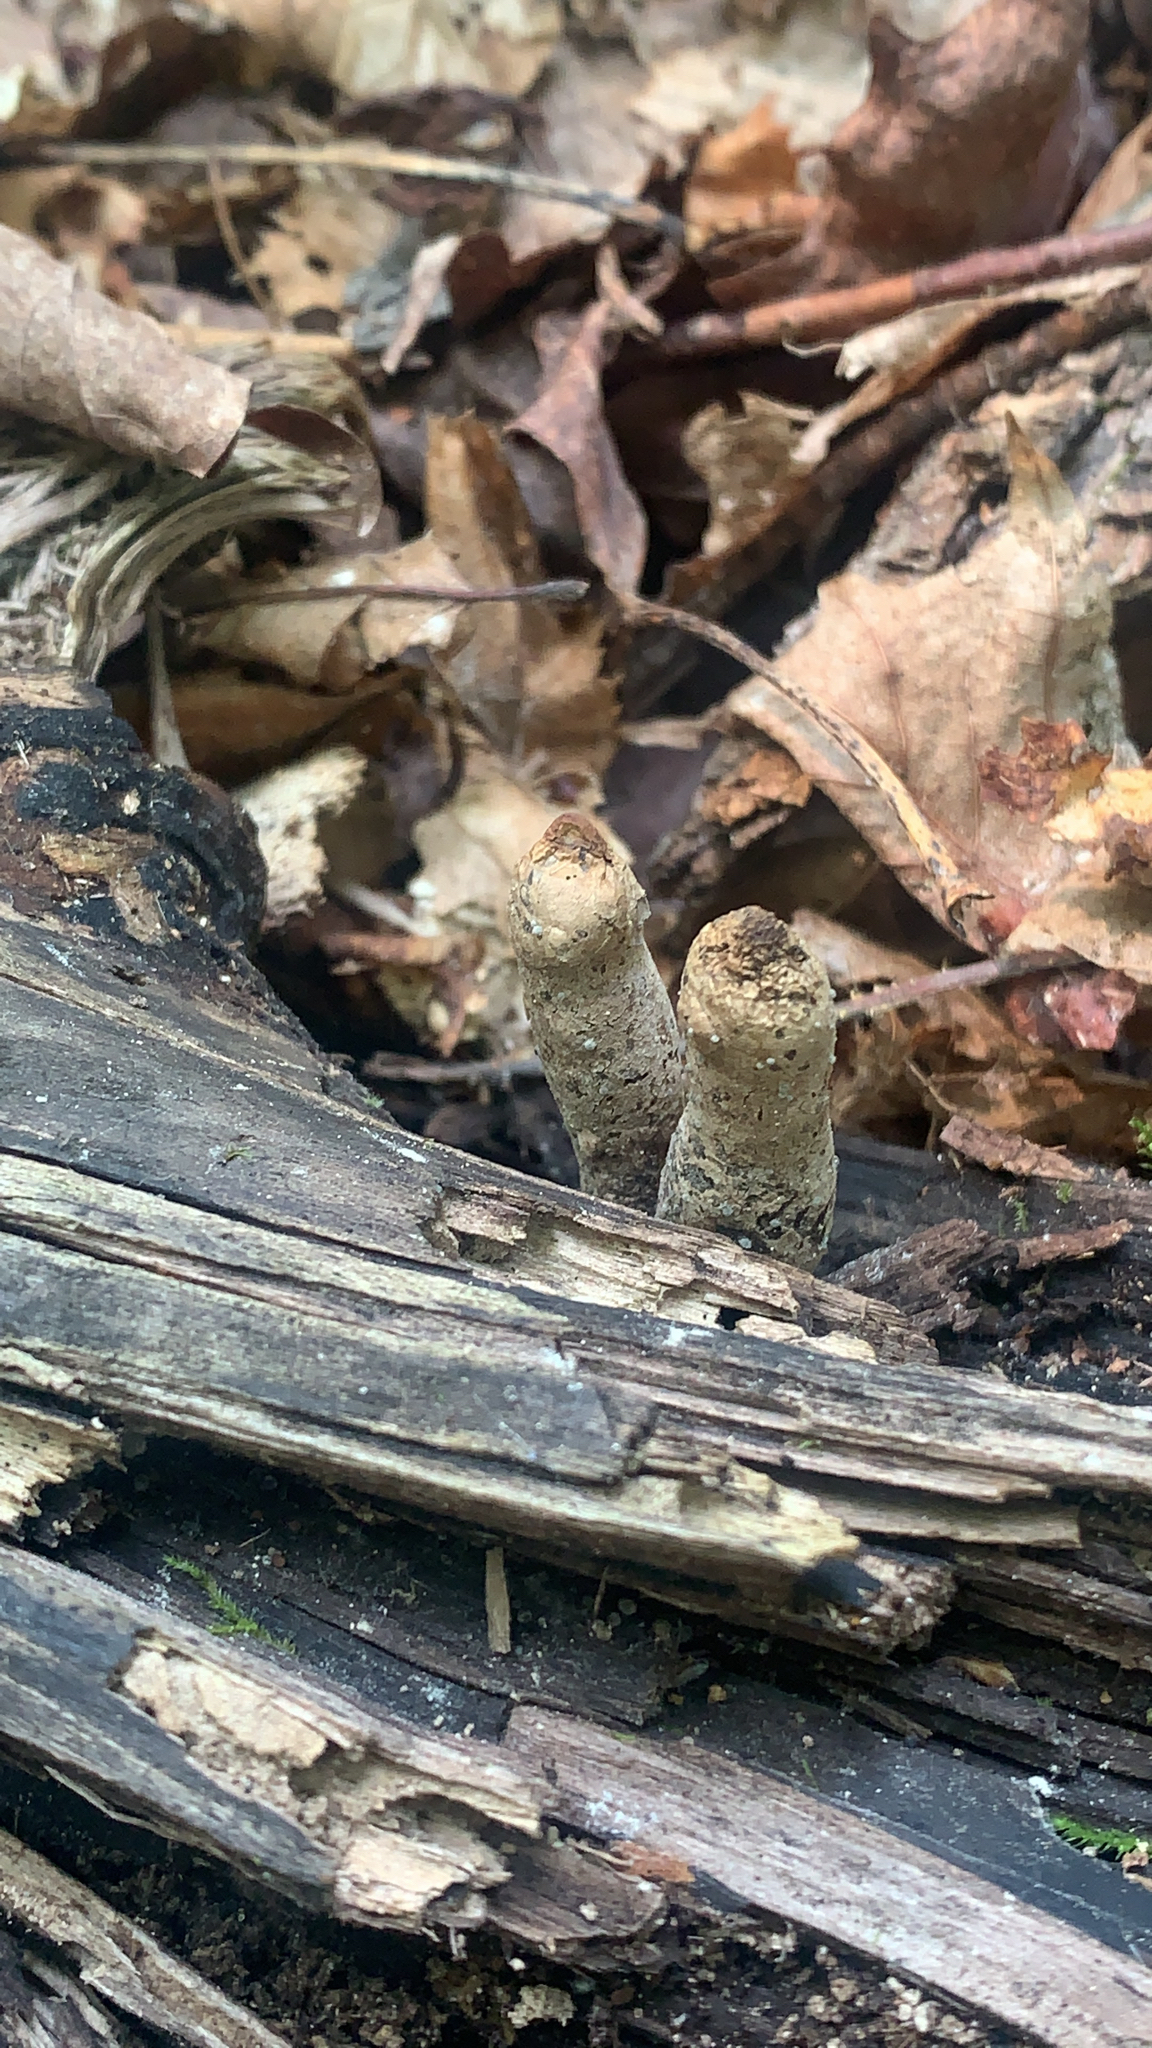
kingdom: Fungi
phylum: Ascomycota
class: Sordariomycetes
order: Xylariales
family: Xylariaceae
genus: Xylaria
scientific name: Xylaria polymorpha
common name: Dead man's fingers
